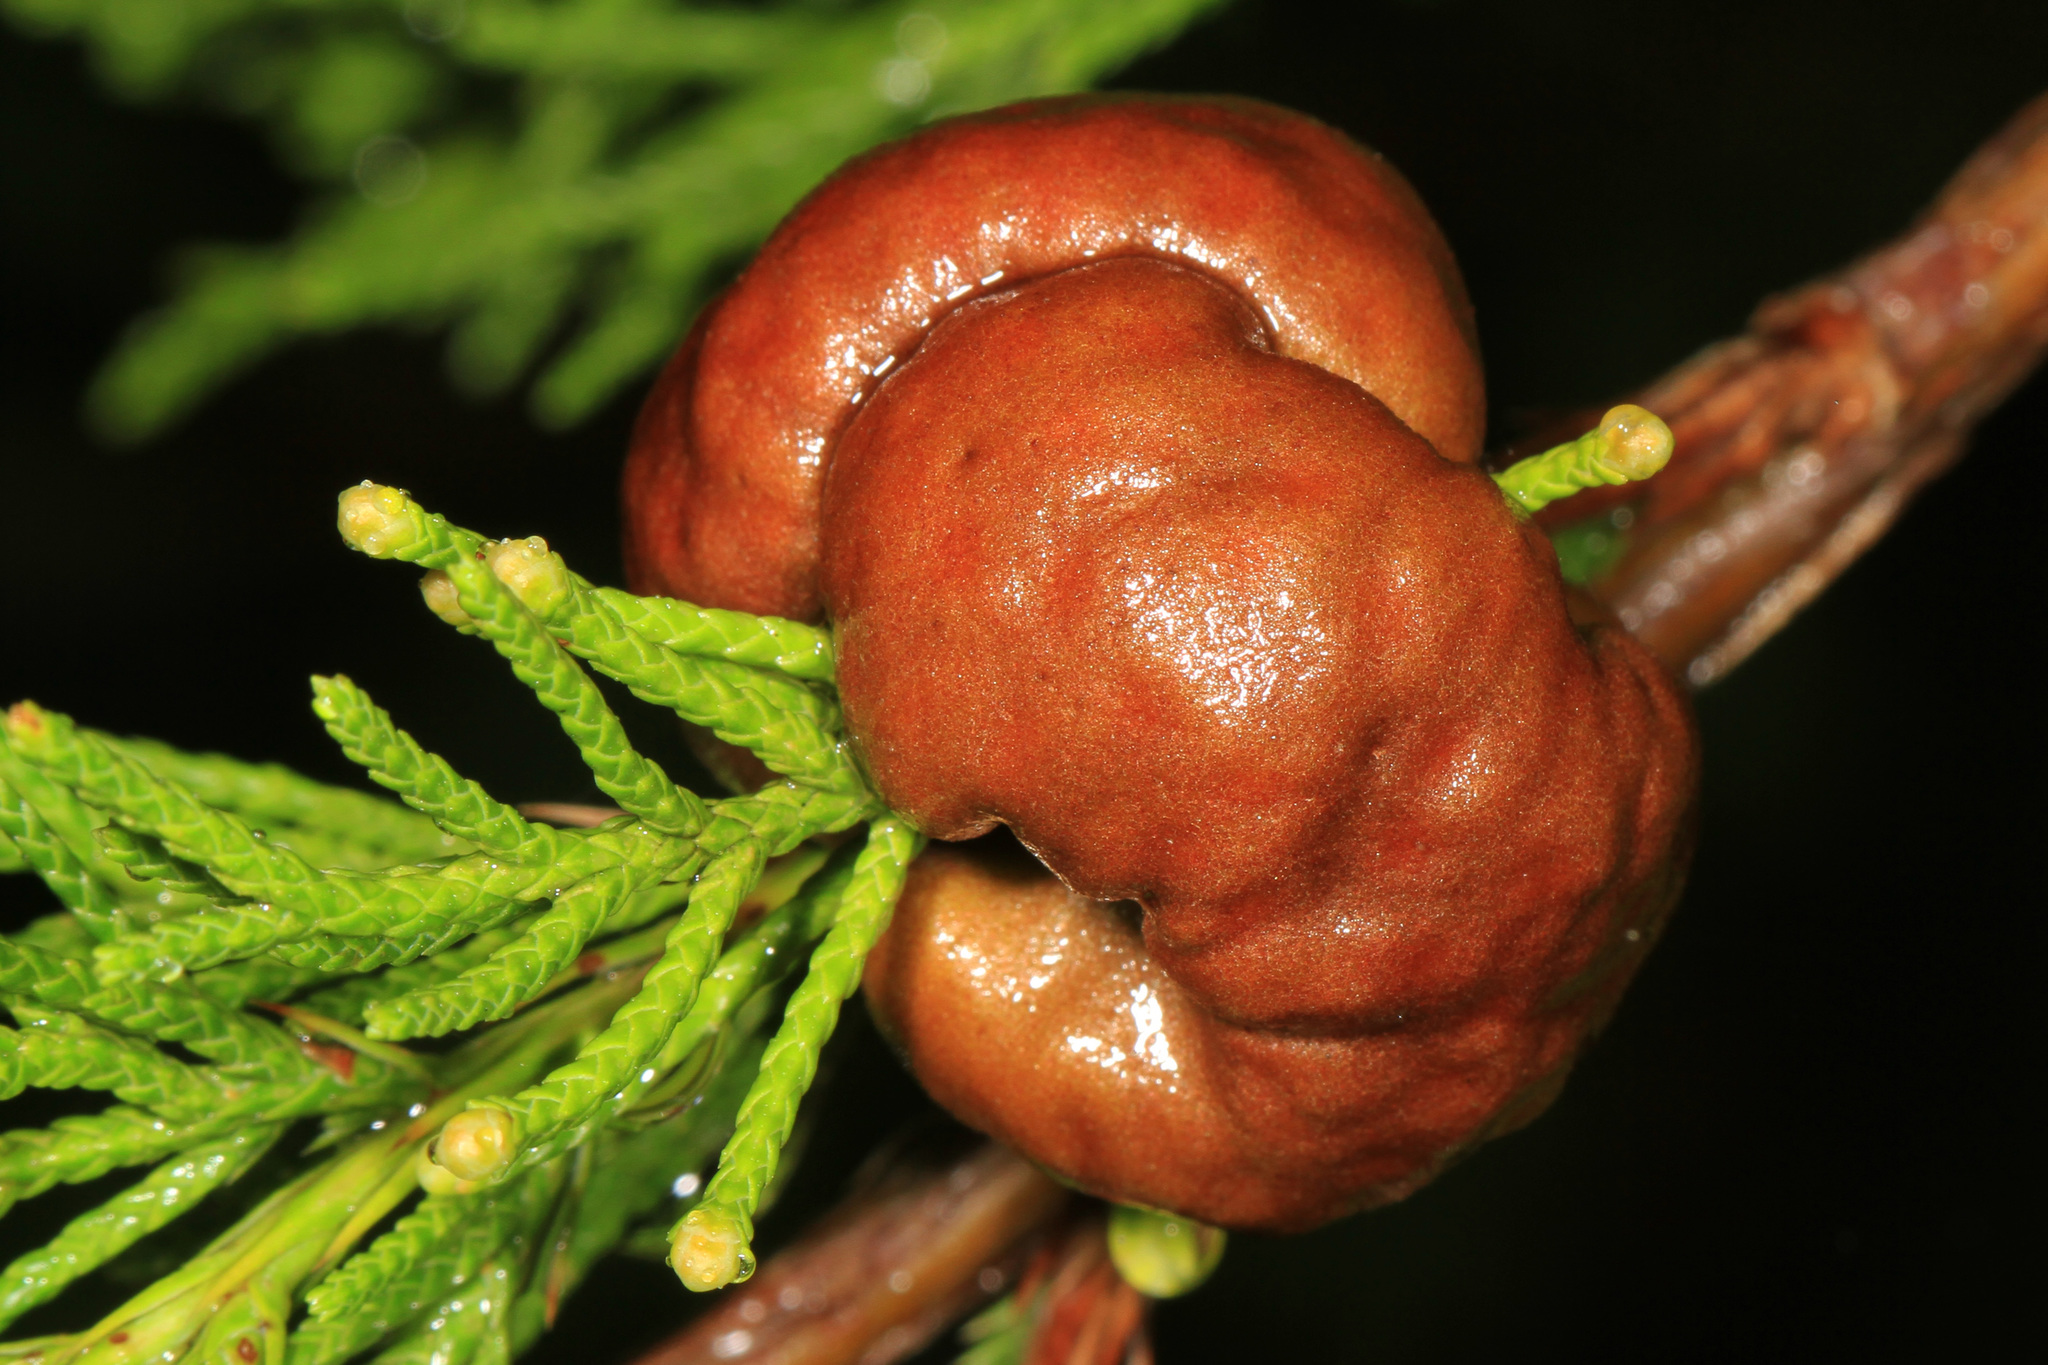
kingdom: Fungi
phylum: Basidiomycota
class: Pucciniomycetes
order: Pucciniales
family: Gymnosporangiaceae
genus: Gymnosporangium
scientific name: Gymnosporangium juniperi-virginianae
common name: Juniper-apple rust
